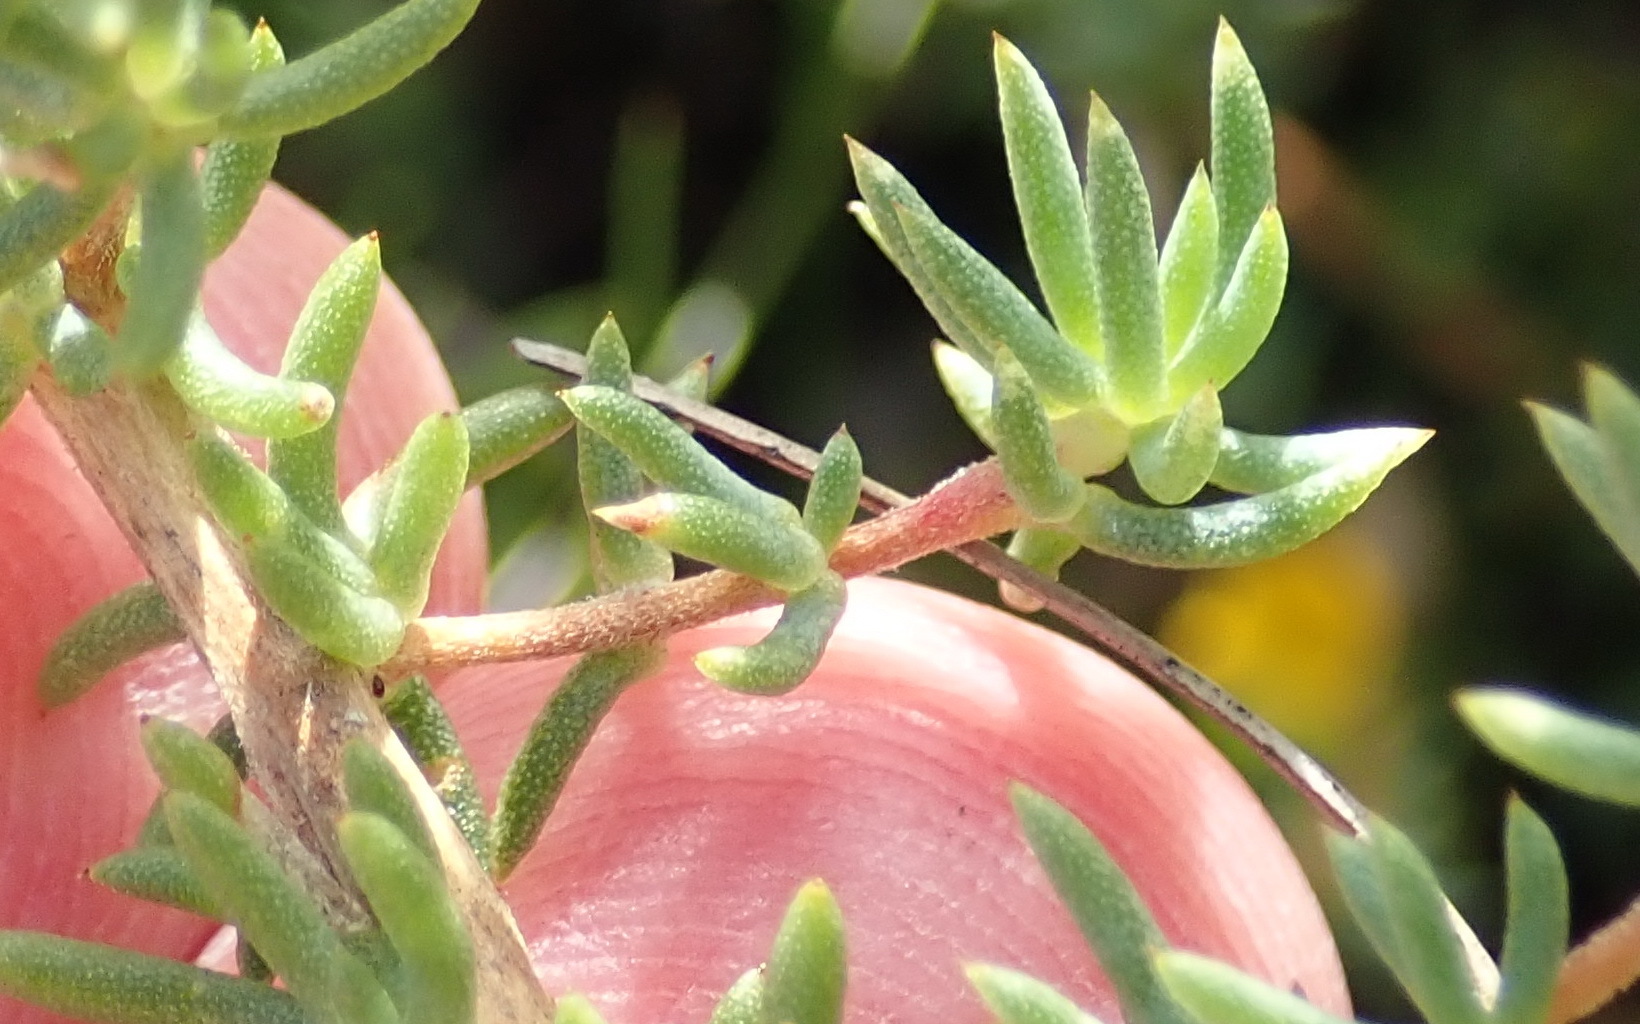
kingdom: Plantae
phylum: Tracheophyta
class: Magnoliopsida
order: Fabales
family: Fabaceae
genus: Aspalathus
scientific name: Aspalathus juniperina
